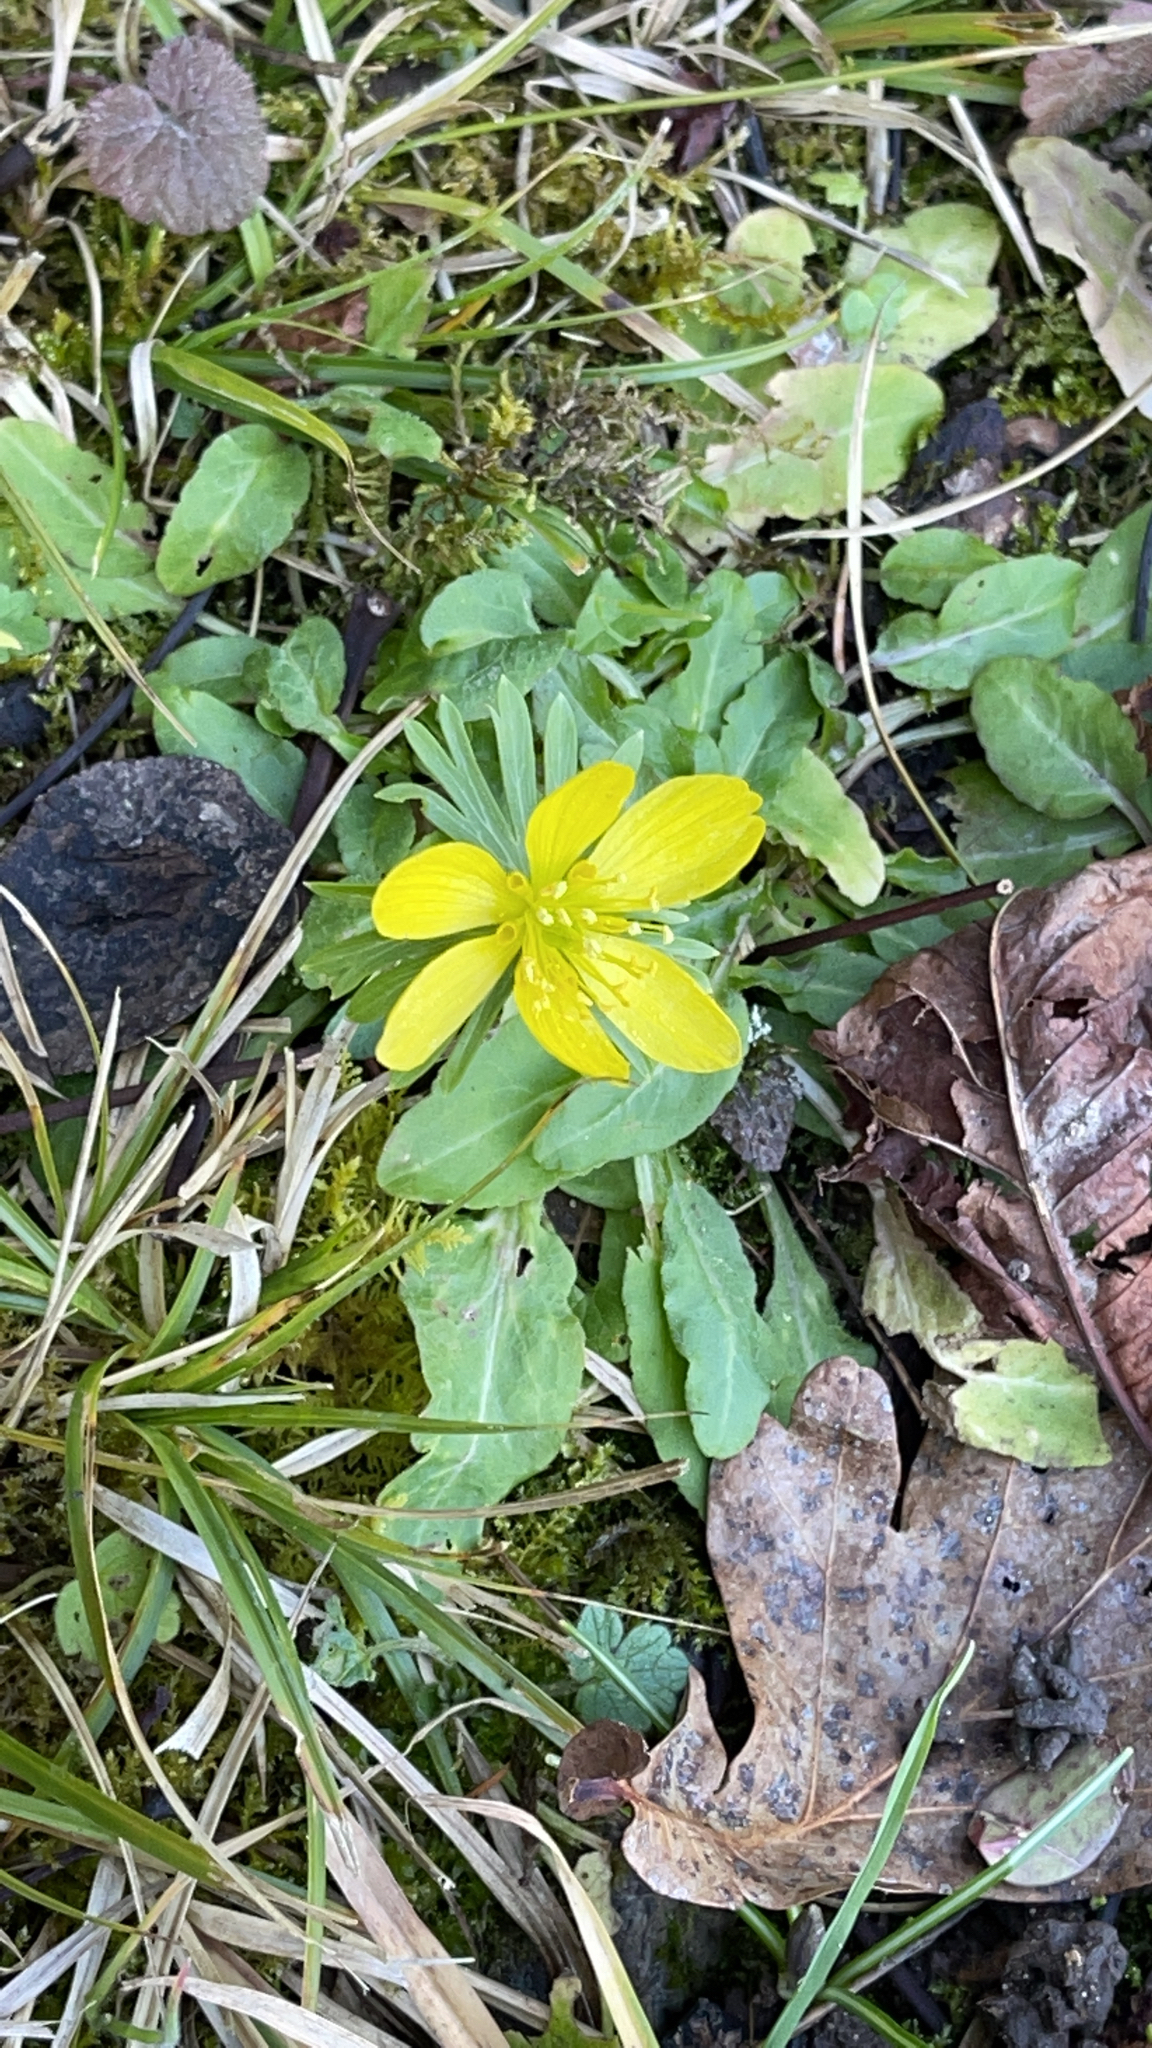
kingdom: Plantae
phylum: Tracheophyta
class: Magnoliopsida
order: Ranunculales
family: Ranunculaceae
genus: Eranthis
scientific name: Eranthis hyemalis
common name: Winter aconite
